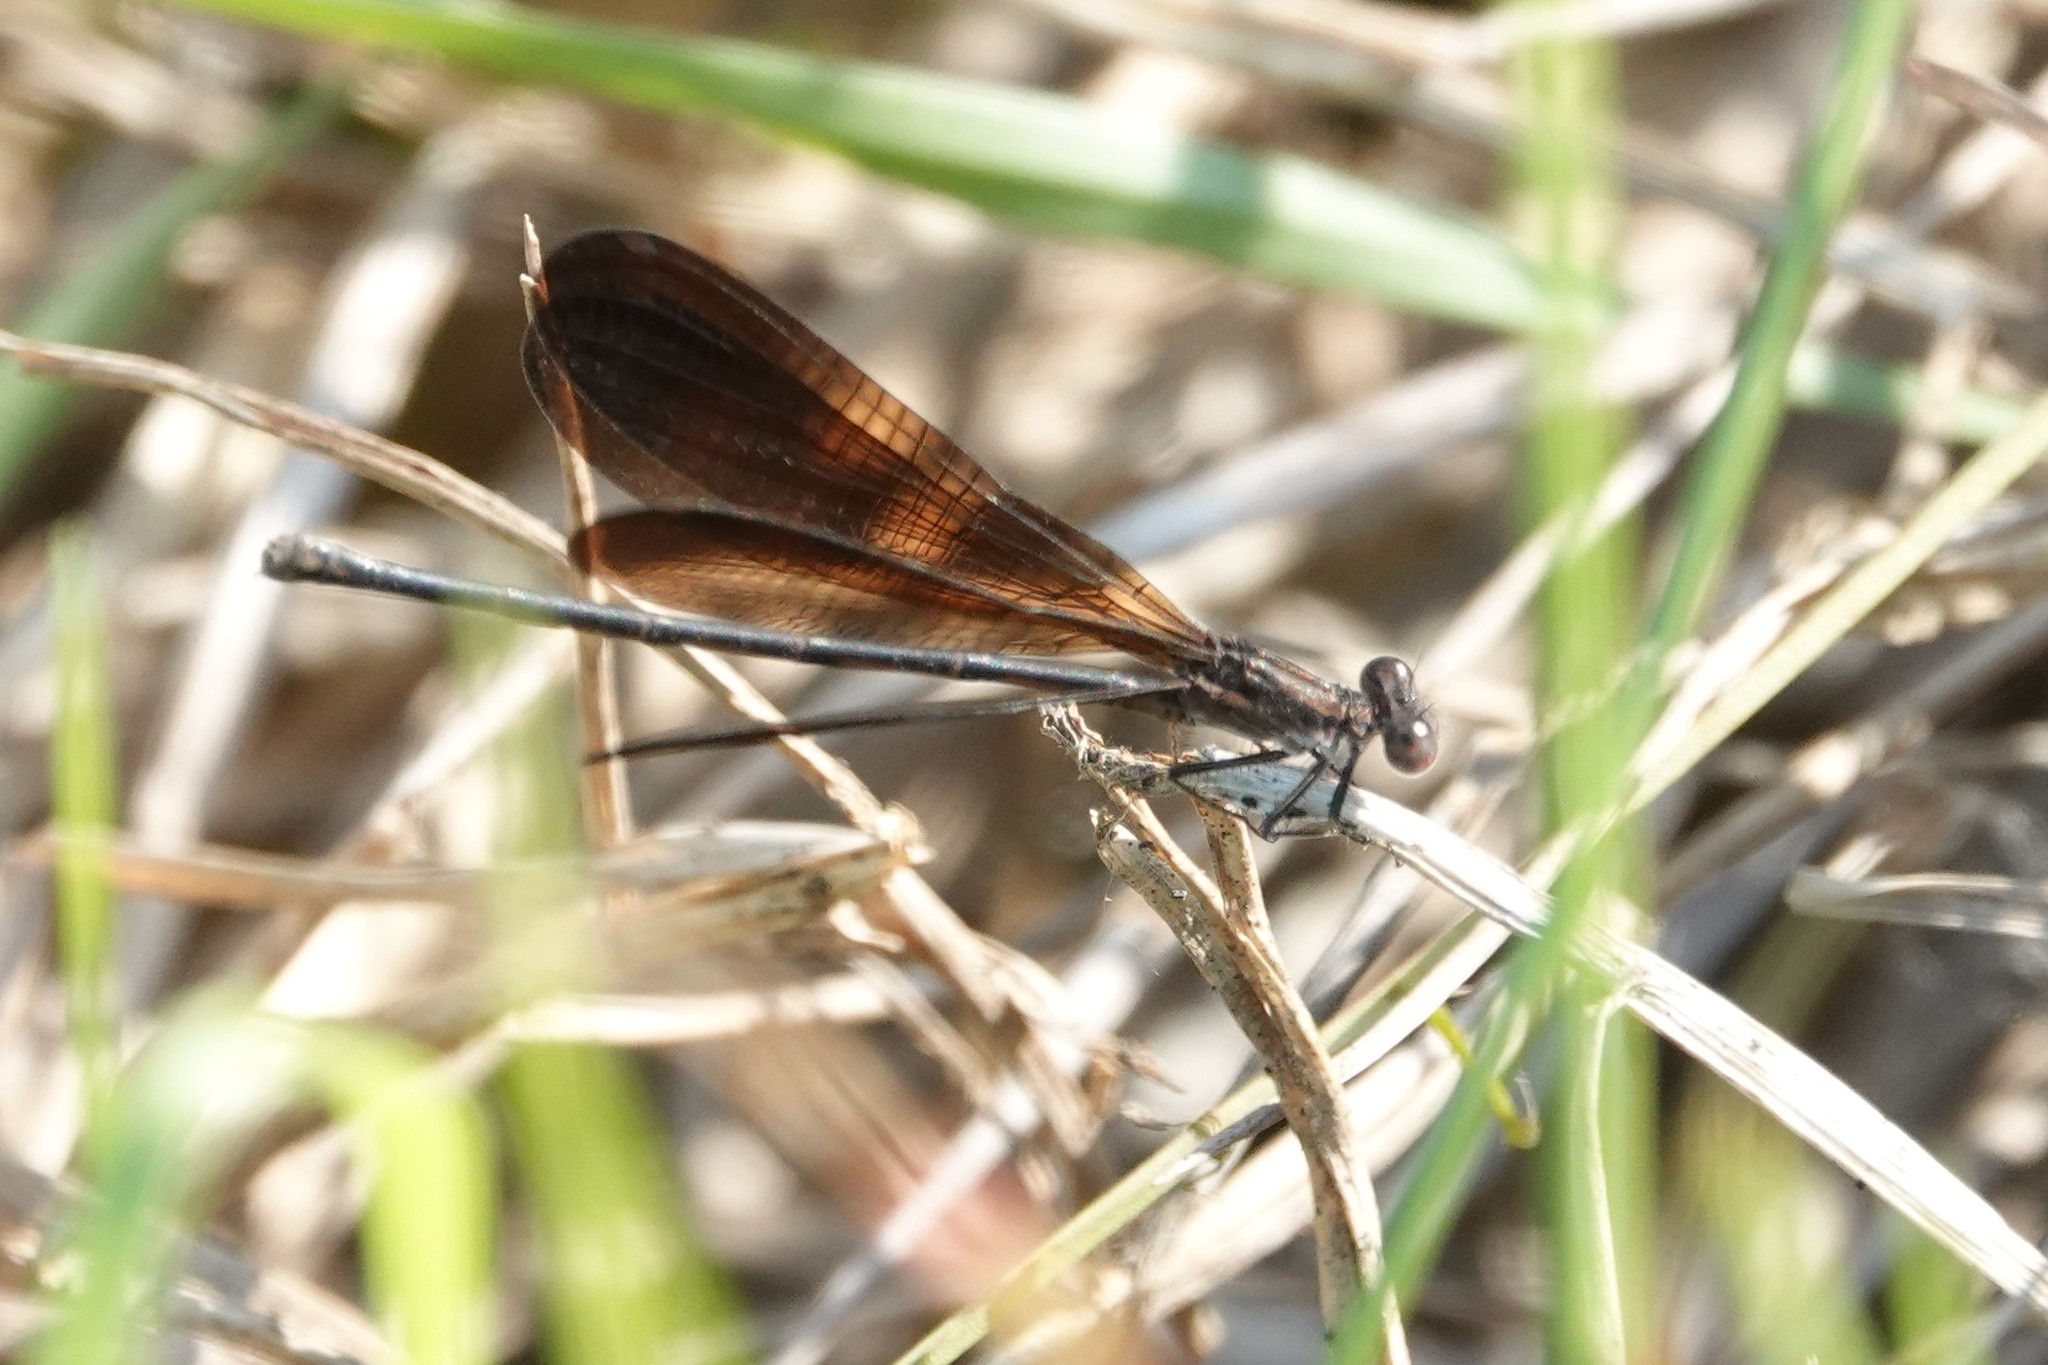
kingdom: Animalia
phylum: Arthropoda
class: Insecta
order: Odonata
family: Coenagrionidae
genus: Argia
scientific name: Argia fumipennis
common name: Variable dancer
